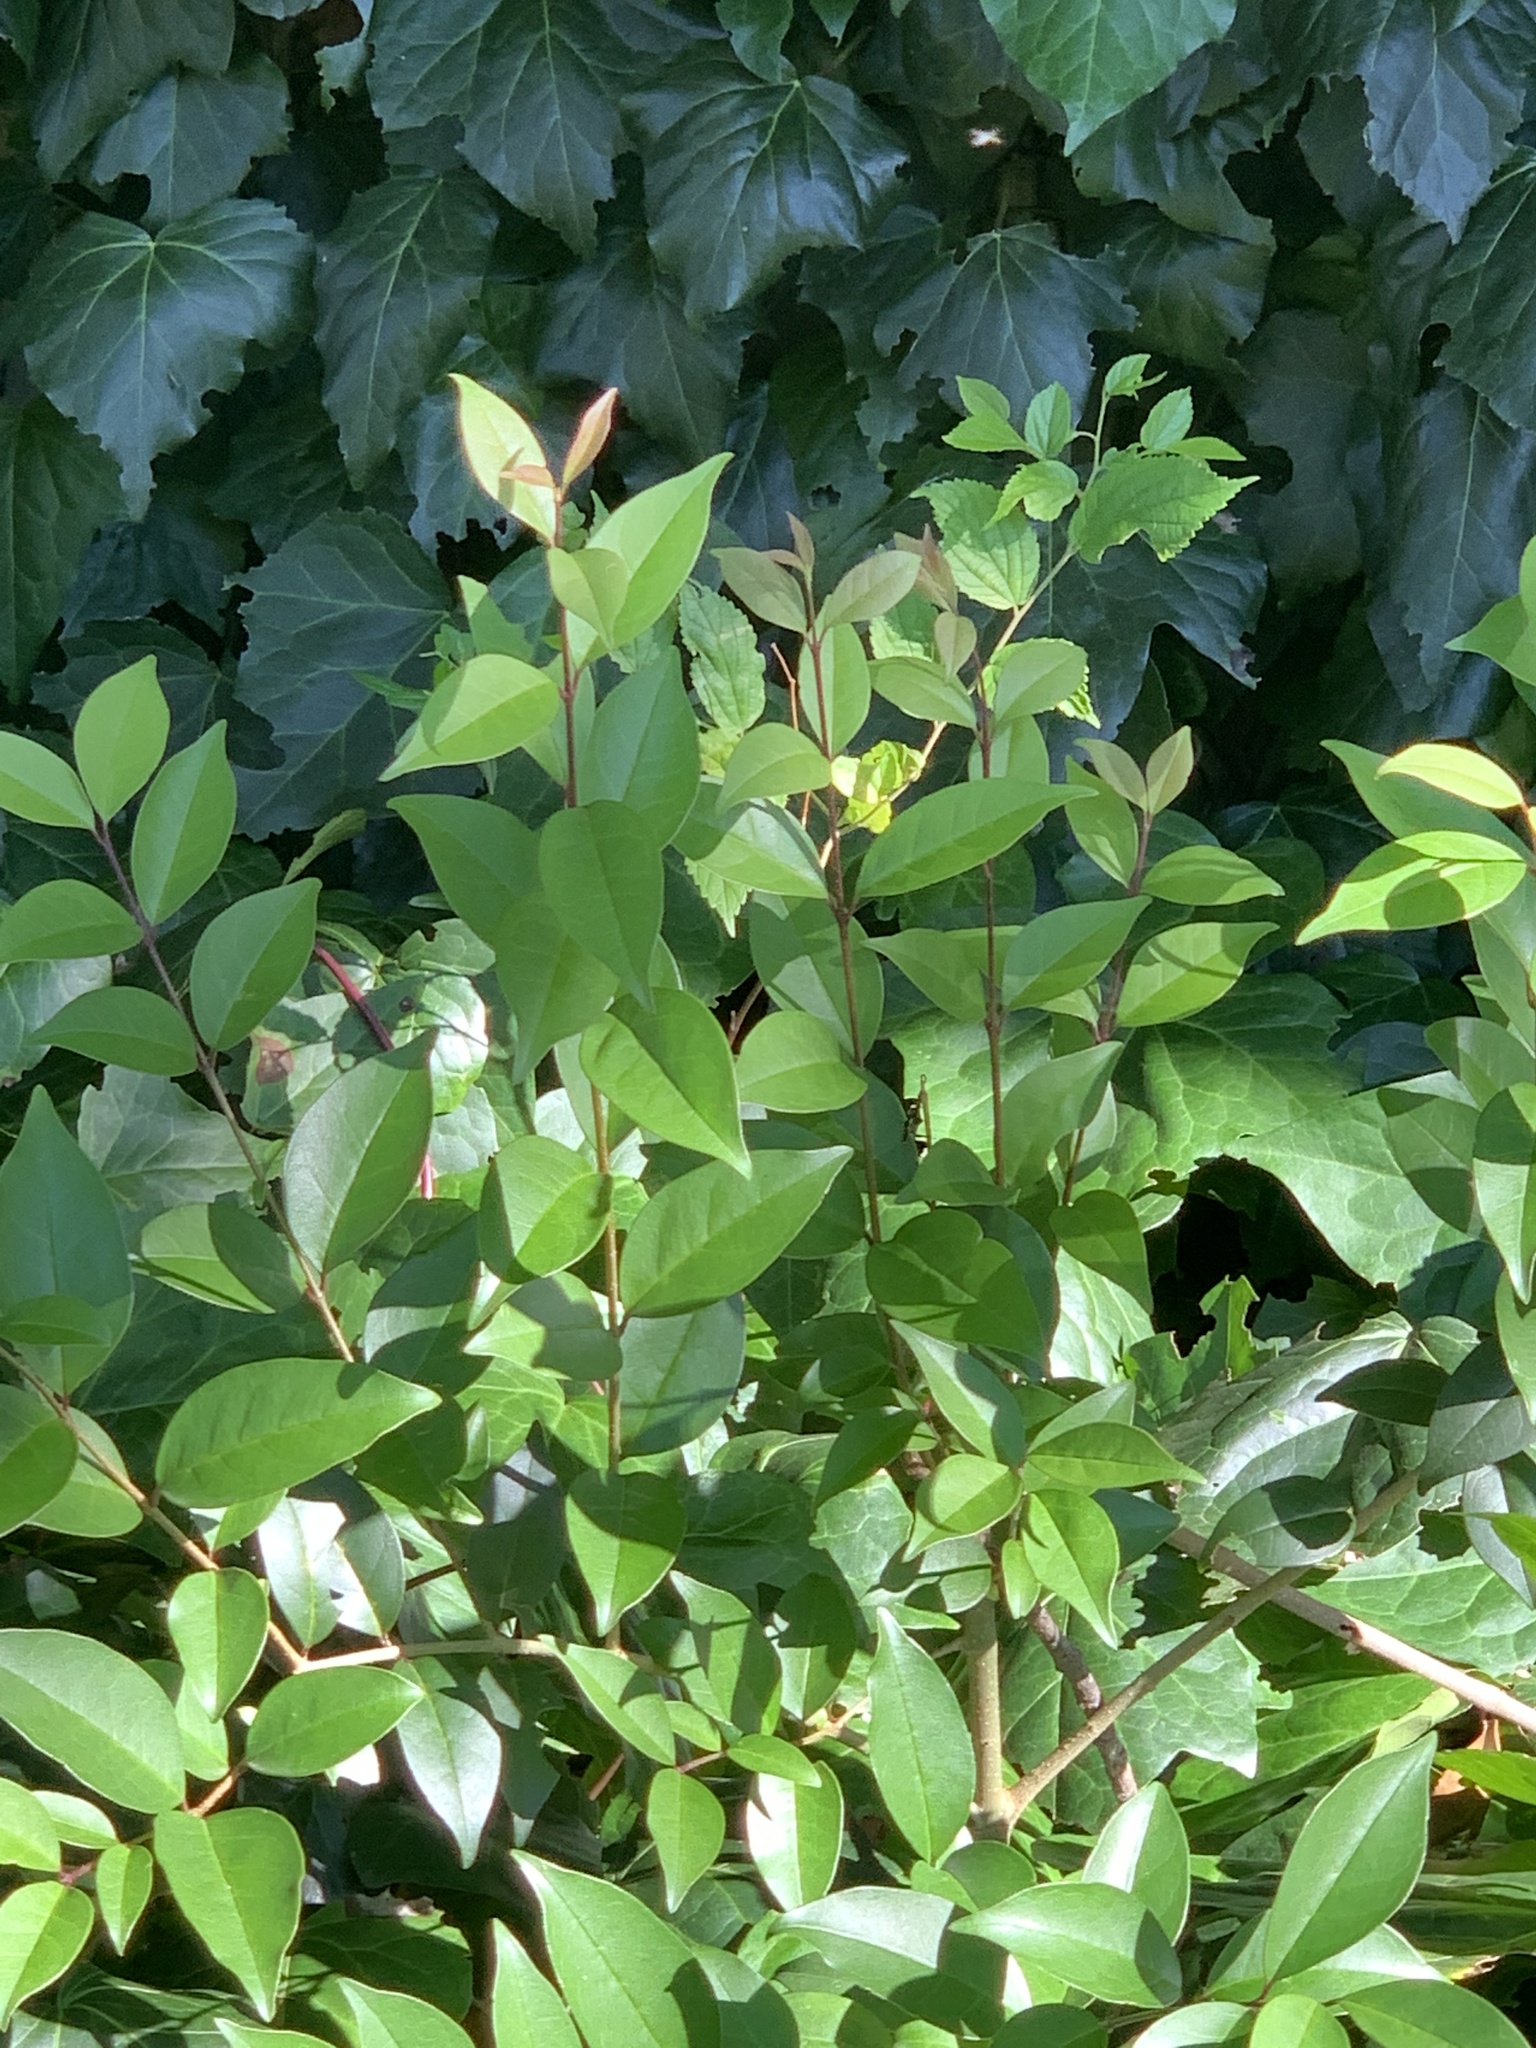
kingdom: Plantae
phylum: Tracheophyta
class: Magnoliopsida
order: Lamiales
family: Oleaceae
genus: Ligustrum
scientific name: Ligustrum lucidum
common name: Glossy privet
